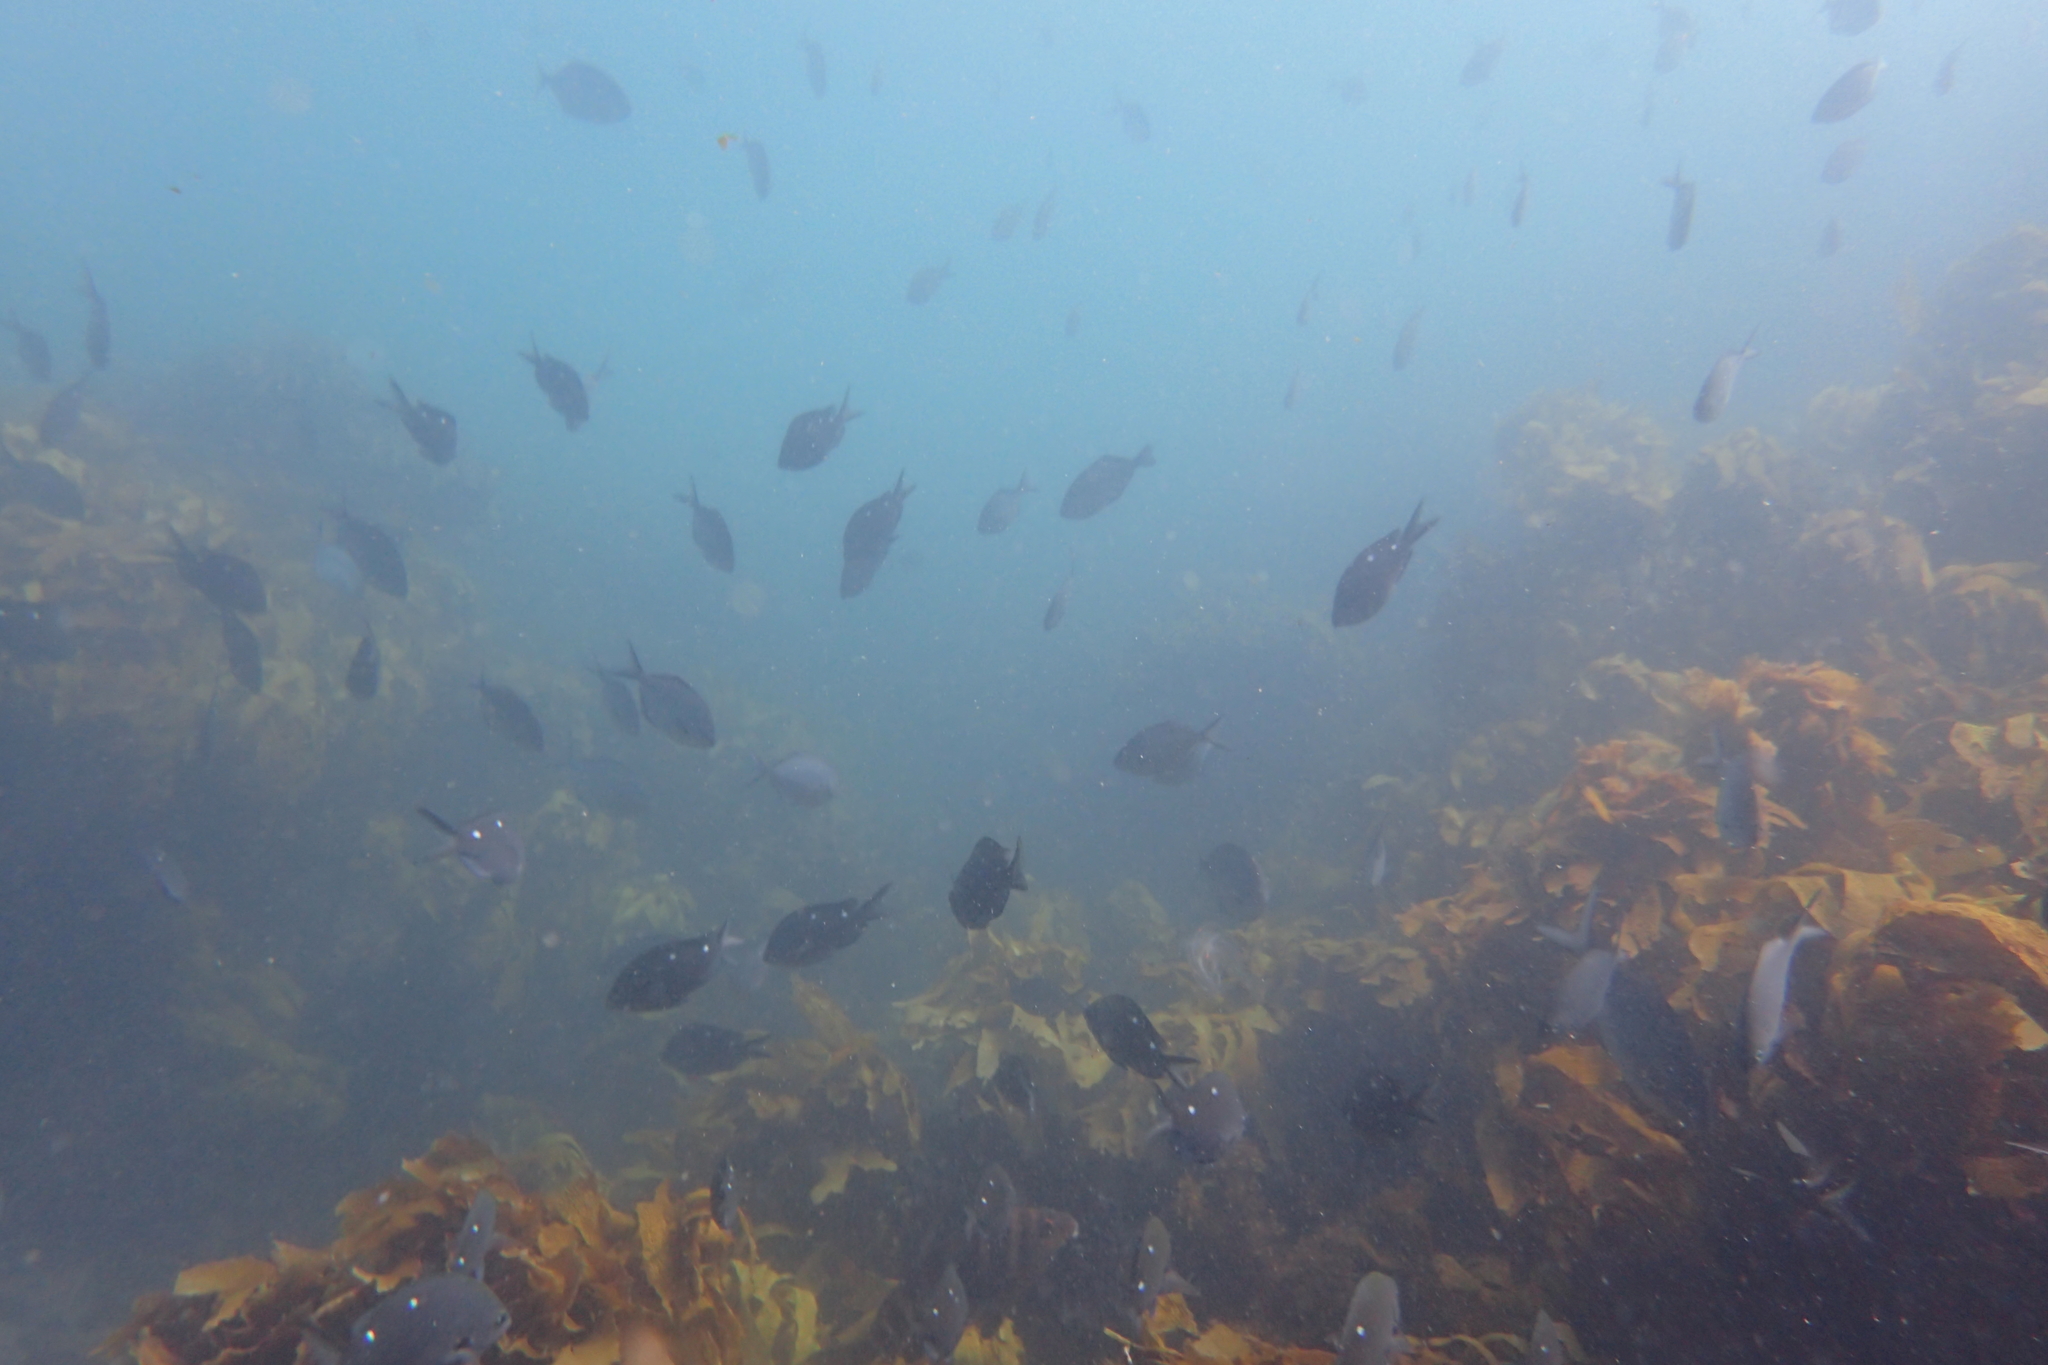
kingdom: Animalia
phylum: Chordata
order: Perciformes
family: Pomacentridae
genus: Chromis
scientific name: Chromis dispilus
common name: Demoiselle
